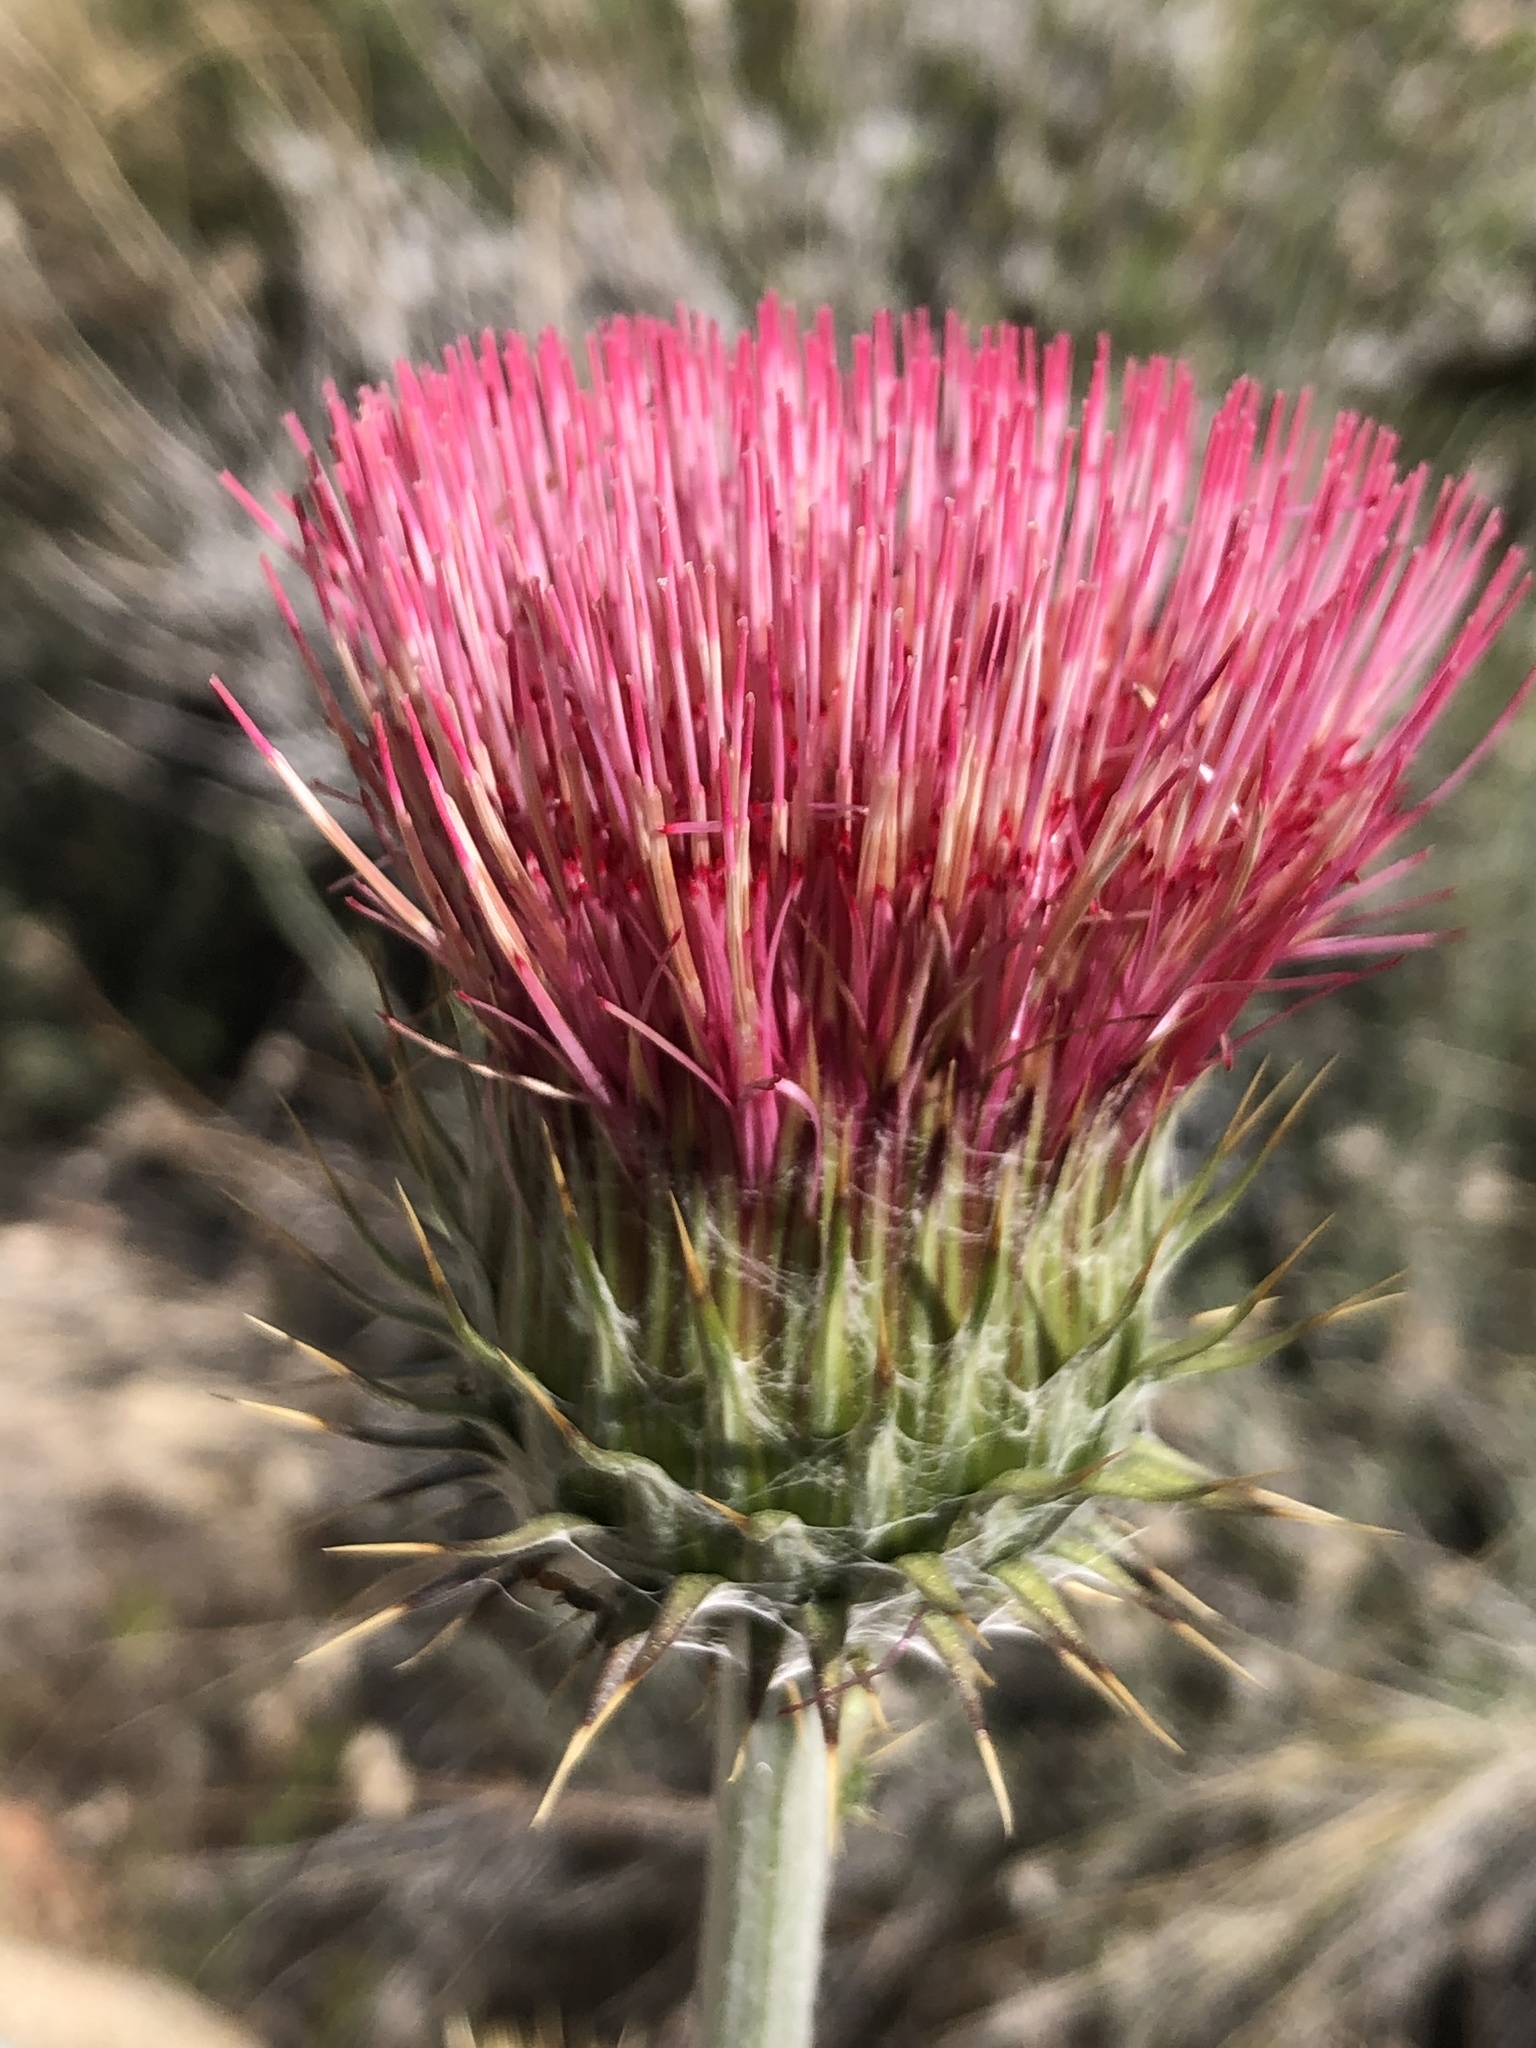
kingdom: Plantae
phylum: Tracheophyta
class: Magnoliopsida
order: Asterales
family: Asteraceae
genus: Cirsium
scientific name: Cirsium occidentale
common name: Western thistle
